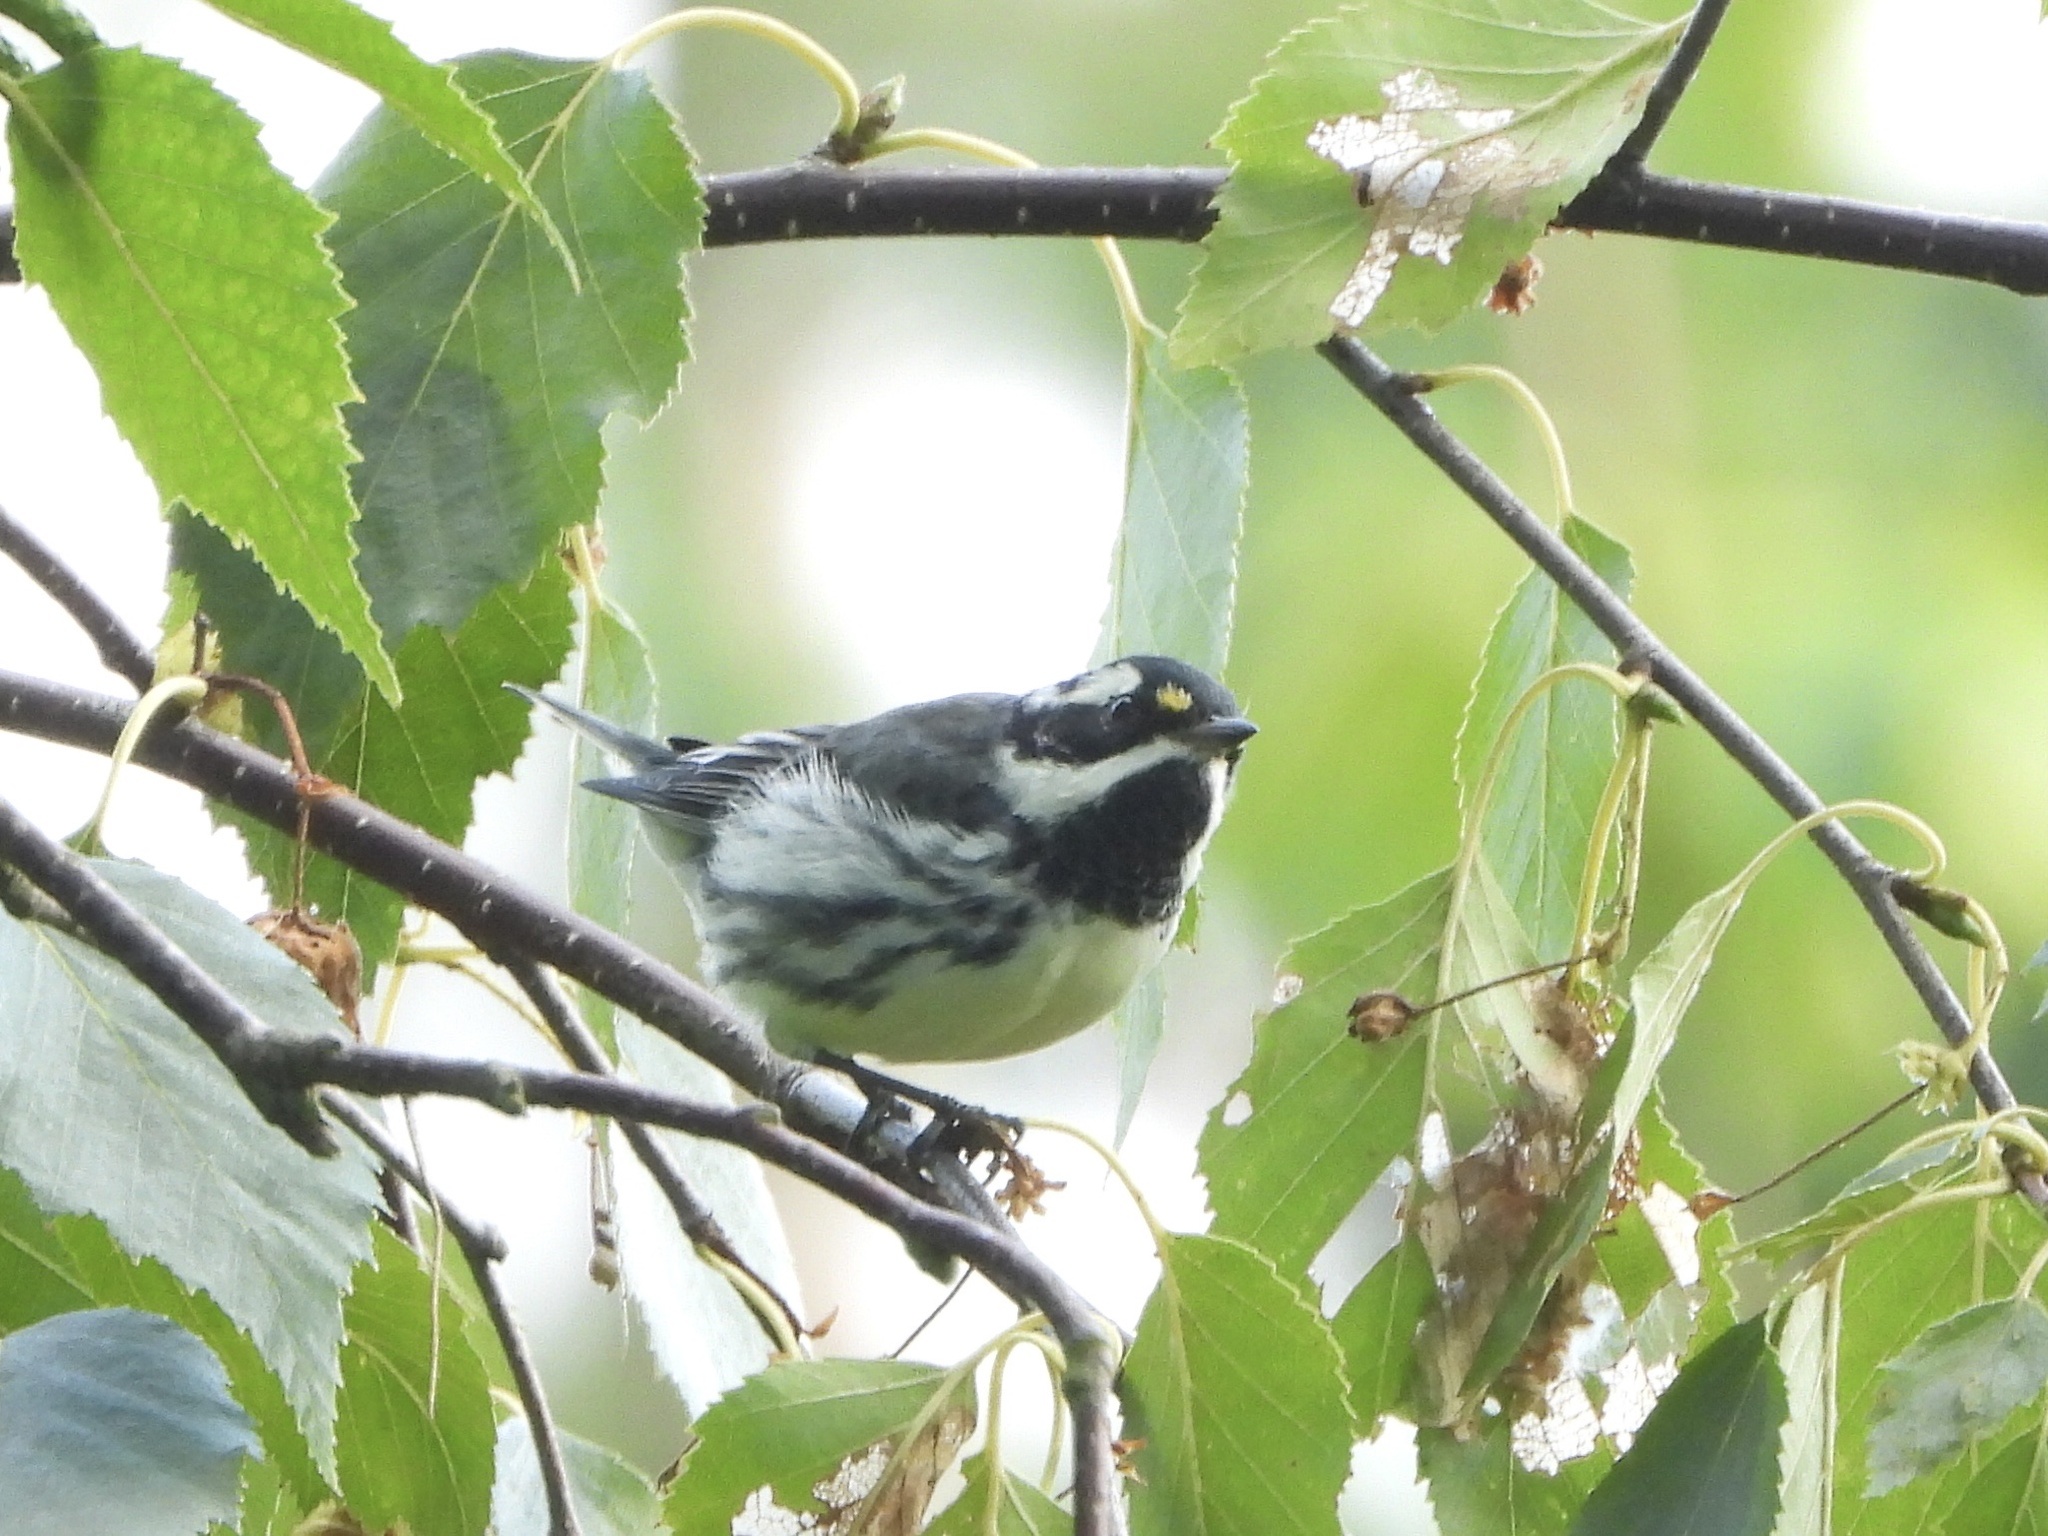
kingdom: Animalia
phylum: Chordata
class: Aves
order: Passeriformes
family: Parulidae
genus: Setophaga
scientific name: Setophaga nigrescens
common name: Black-throated gray warbler
